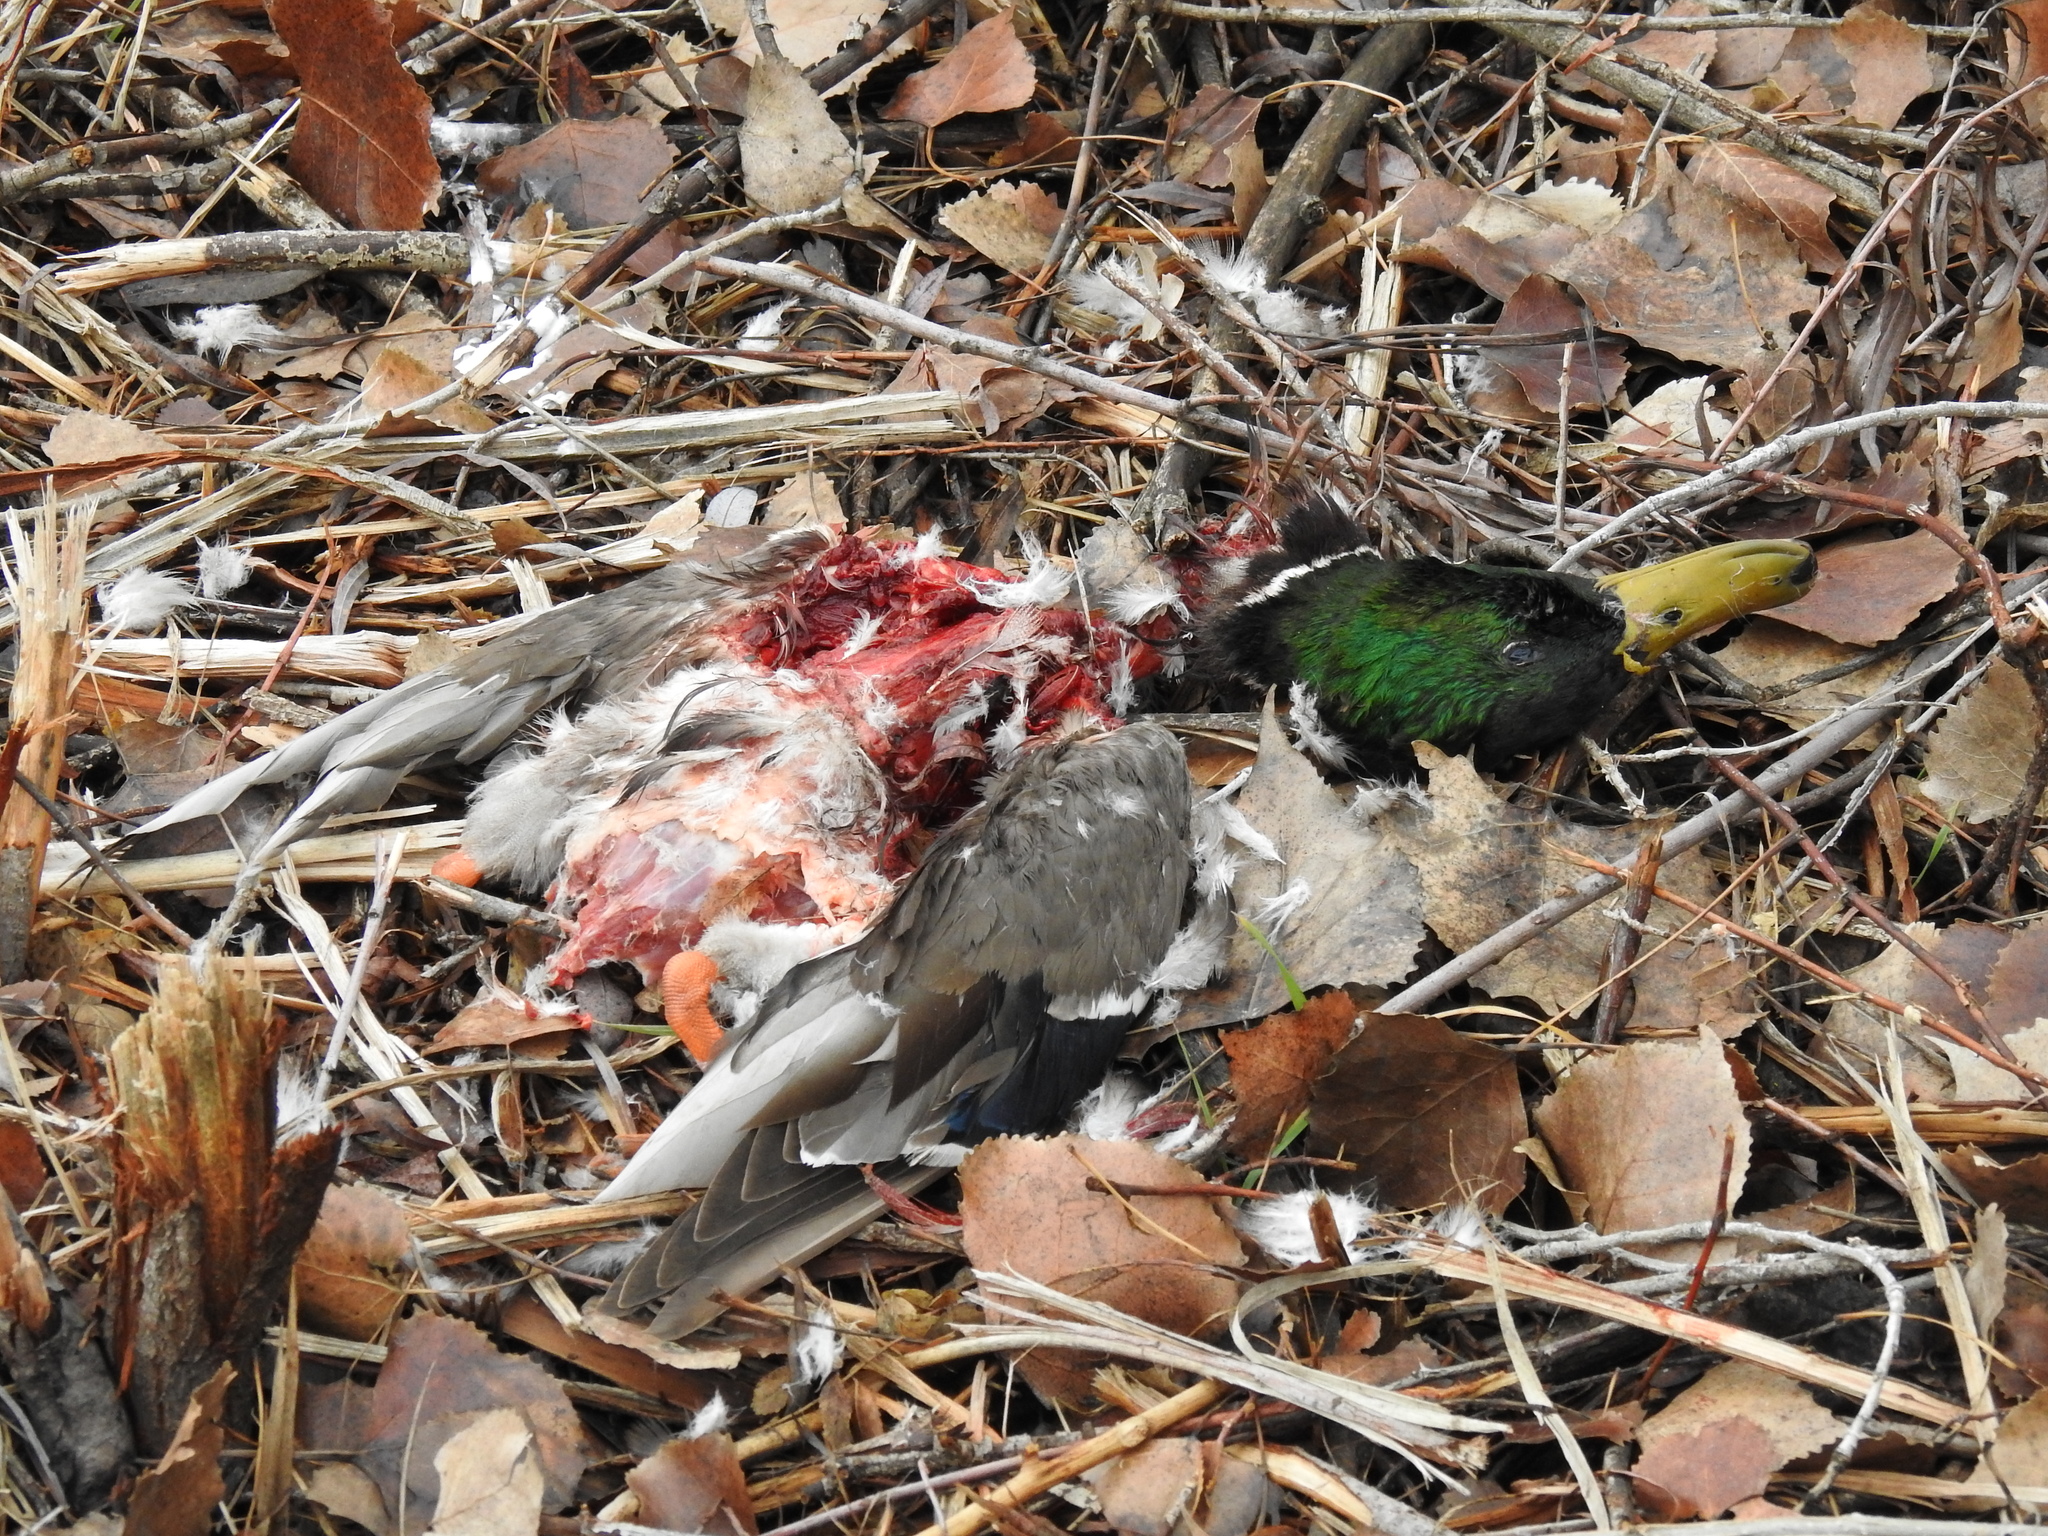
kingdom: Animalia
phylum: Chordata
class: Aves
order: Anseriformes
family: Anatidae
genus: Anas
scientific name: Anas platyrhynchos
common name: Mallard
